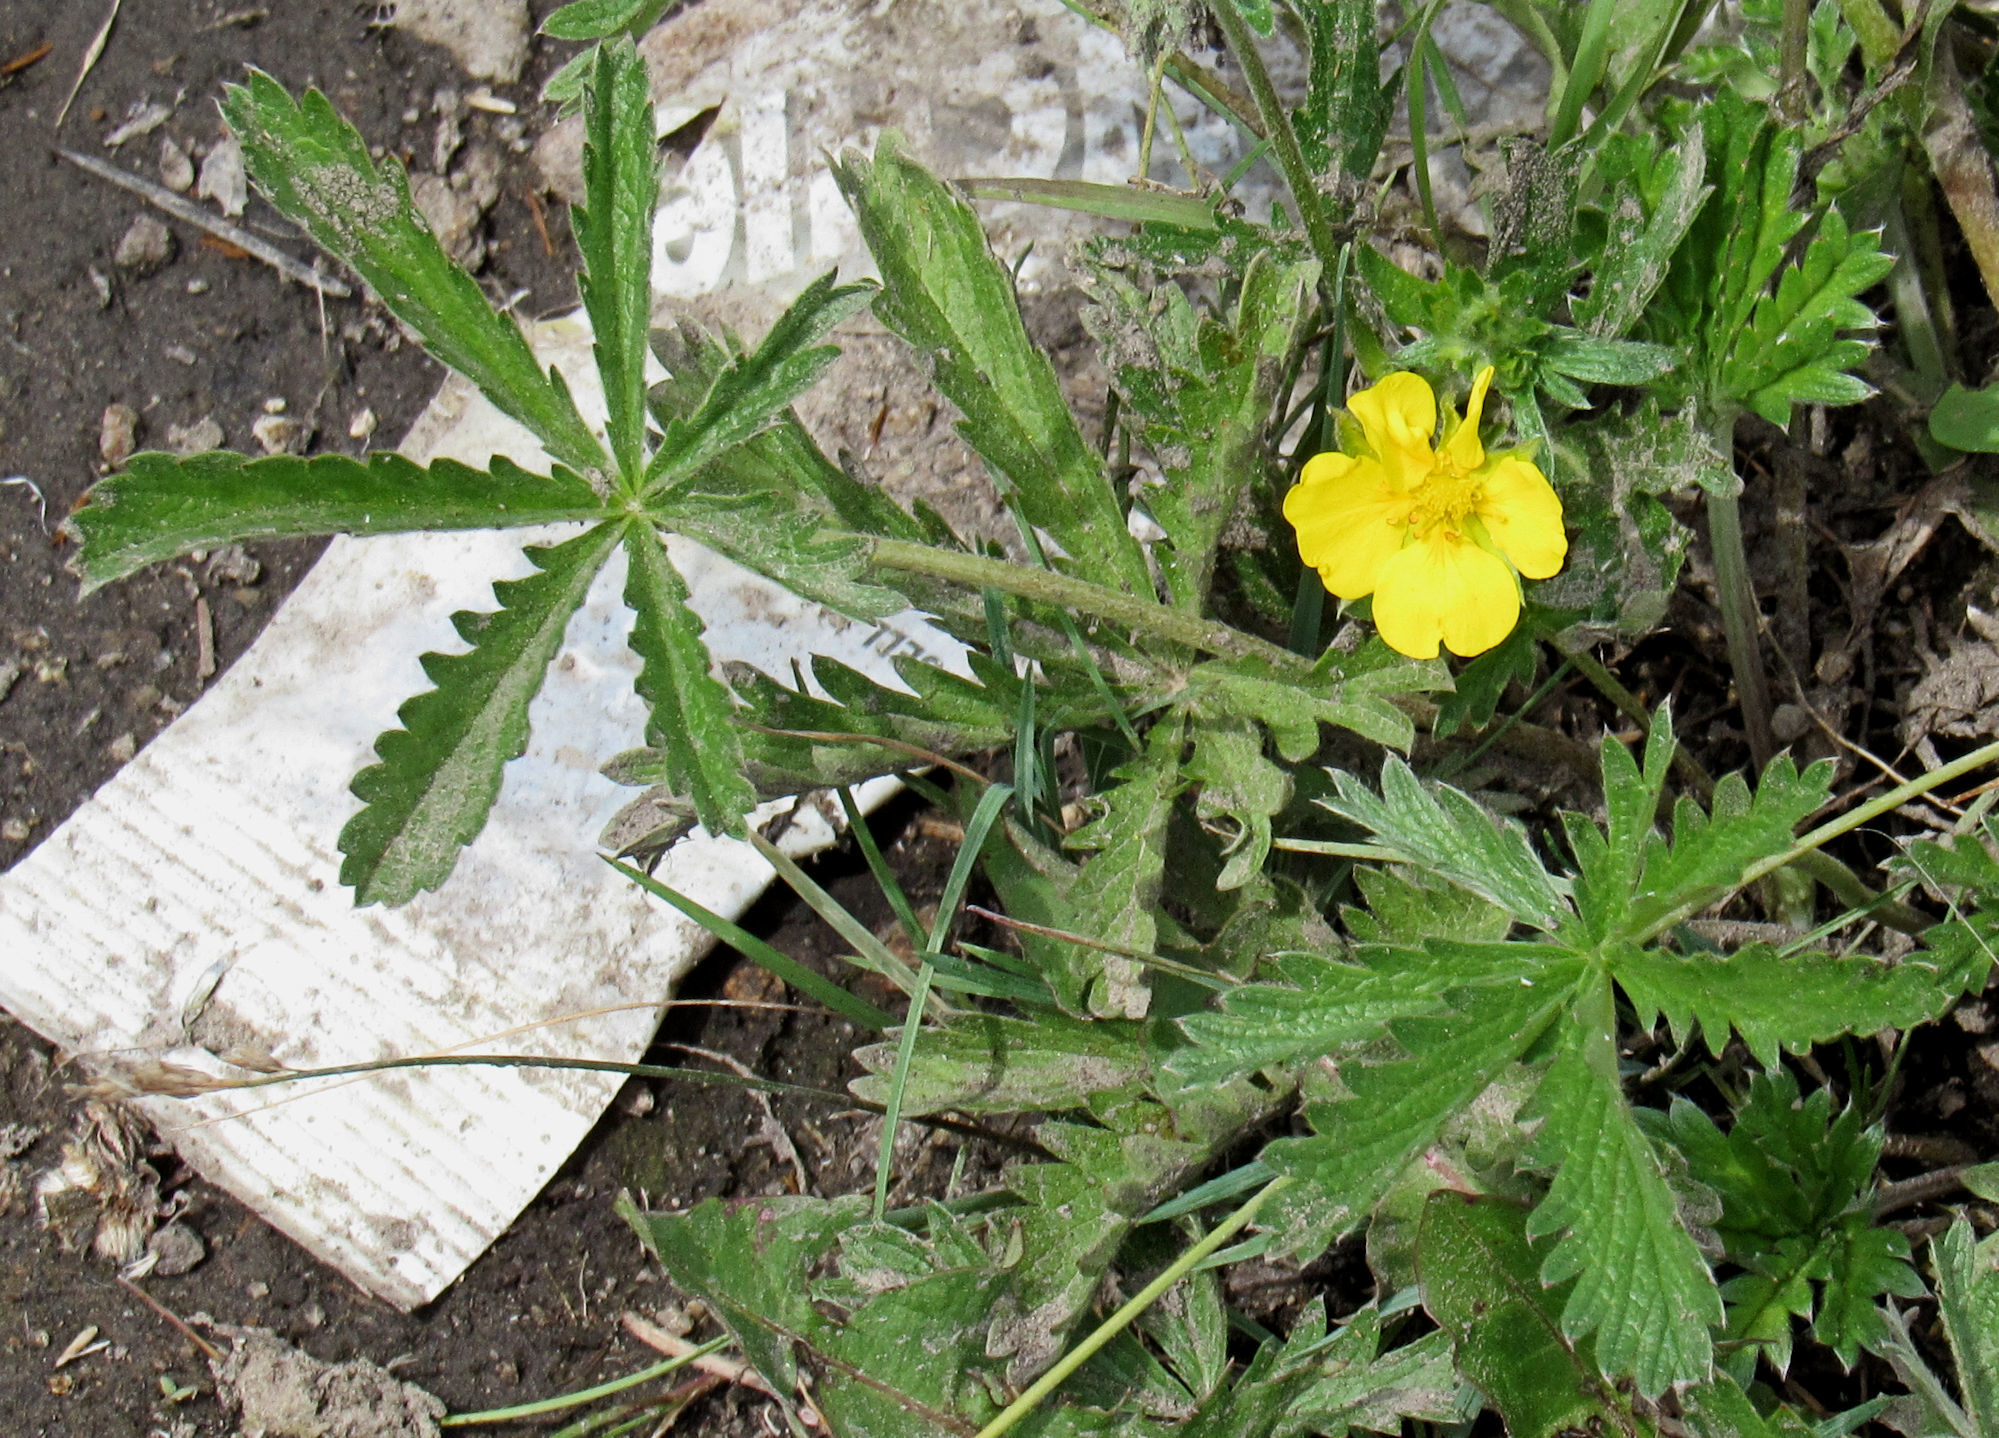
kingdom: Plantae
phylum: Tracheophyta
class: Magnoliopsida
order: Rosales
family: Rosaceae
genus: Potentilla
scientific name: Potentilla gracilis
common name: Graceful cinquefoil
